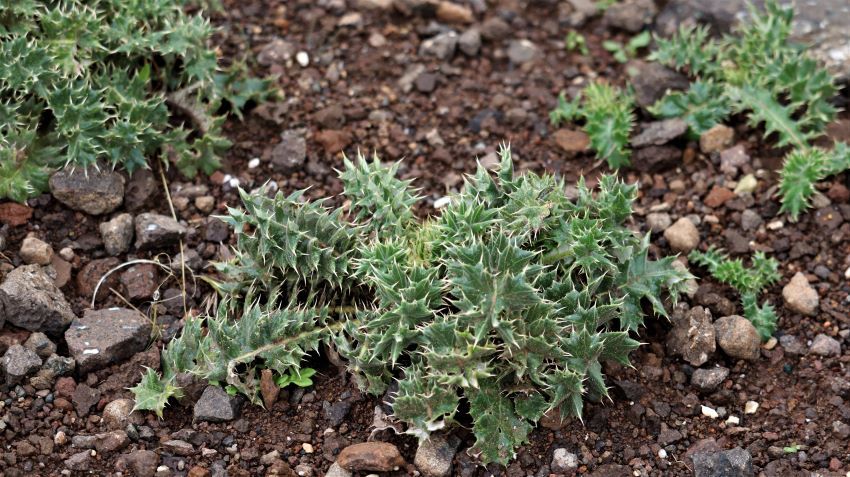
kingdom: Plantae
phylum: Tracheophyta
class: Magnoliopsida
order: Asterales
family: Asteraceae
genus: Berkheya
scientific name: Berkheya purpurea
